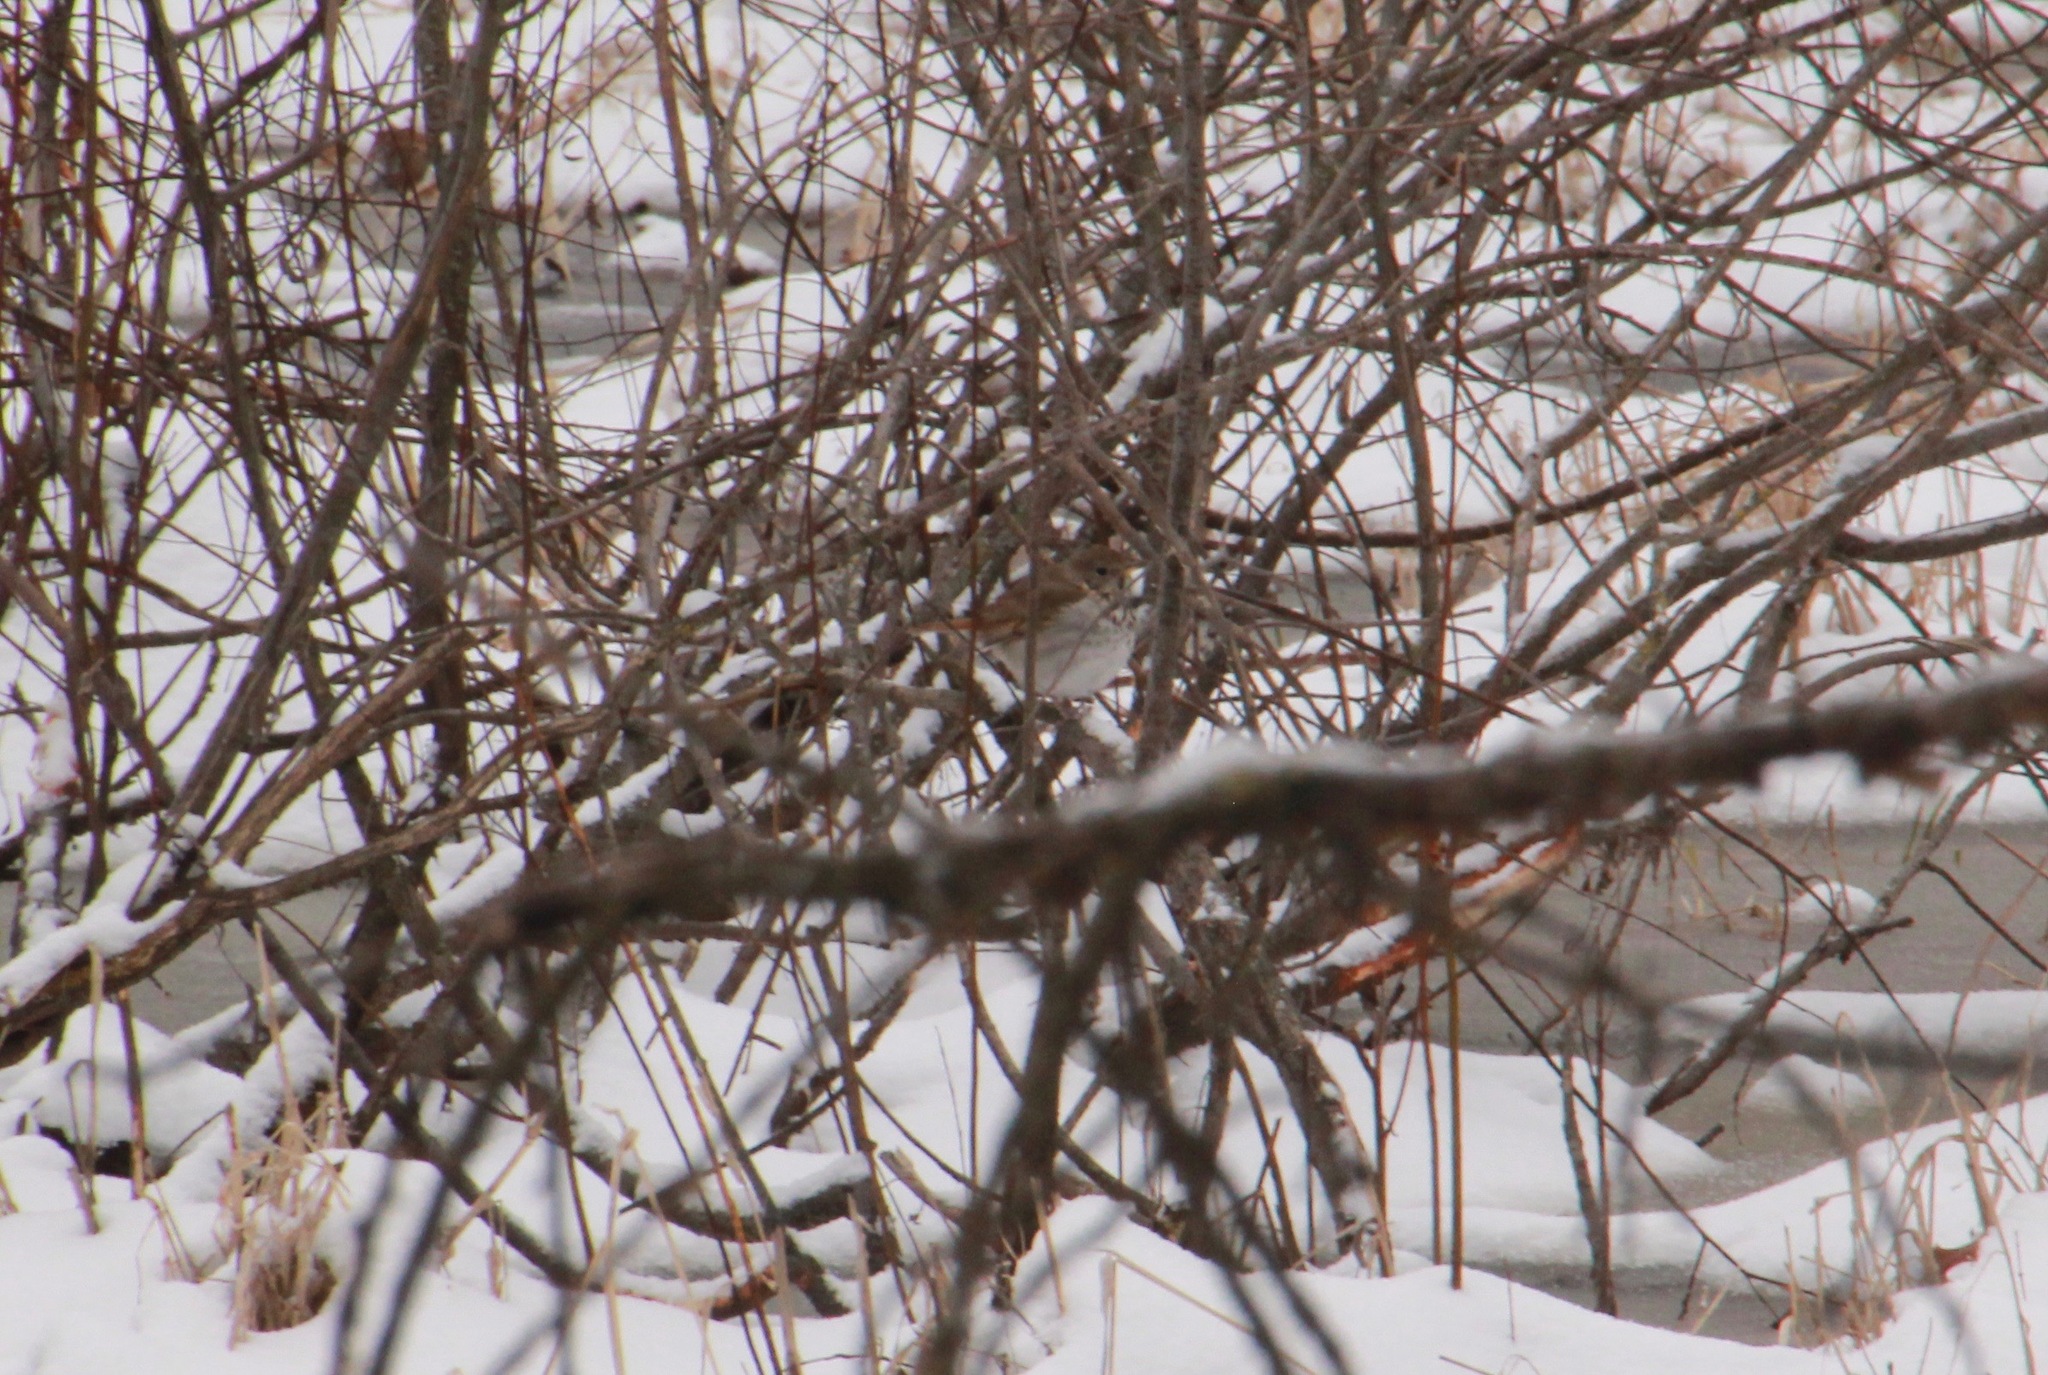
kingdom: Animalia
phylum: Chordata
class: Aves
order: Passeriformes
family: Turdidae
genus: Catharus
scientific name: Catharus guttatus
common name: Hermit thrush
